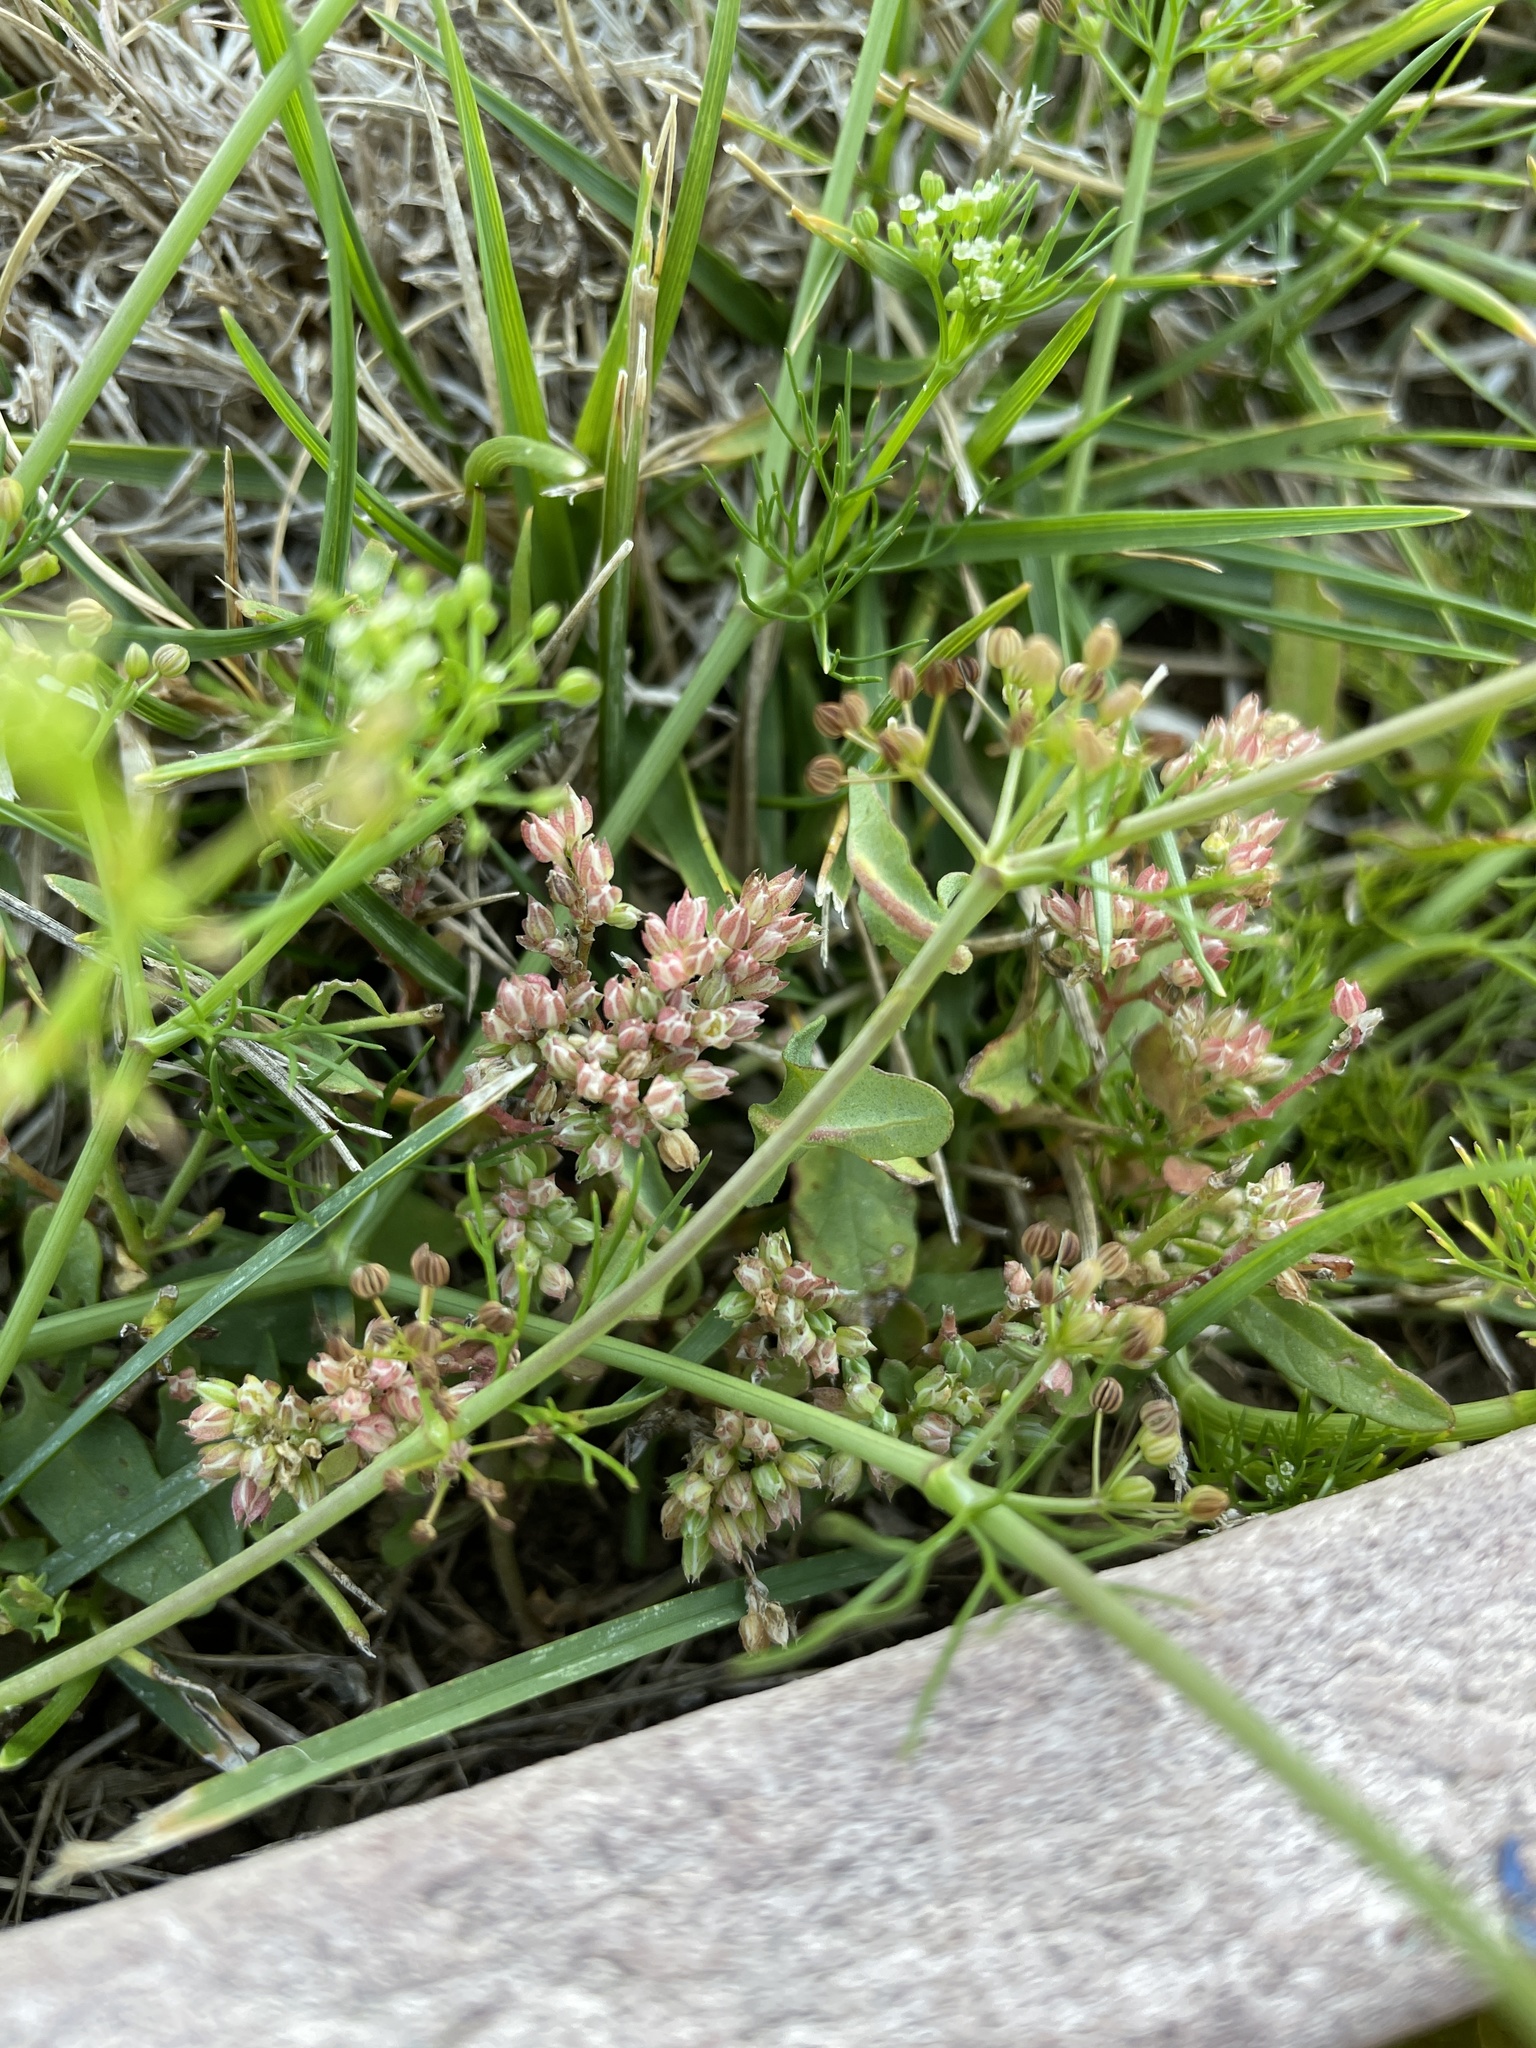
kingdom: Plantae
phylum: Tracheophyta
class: Magnoliopsida
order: Caryophyllales
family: Caryophyllaceae
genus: Polycarpon
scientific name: Polycarpon tetraphyllum
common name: Four-leaved all-seed
